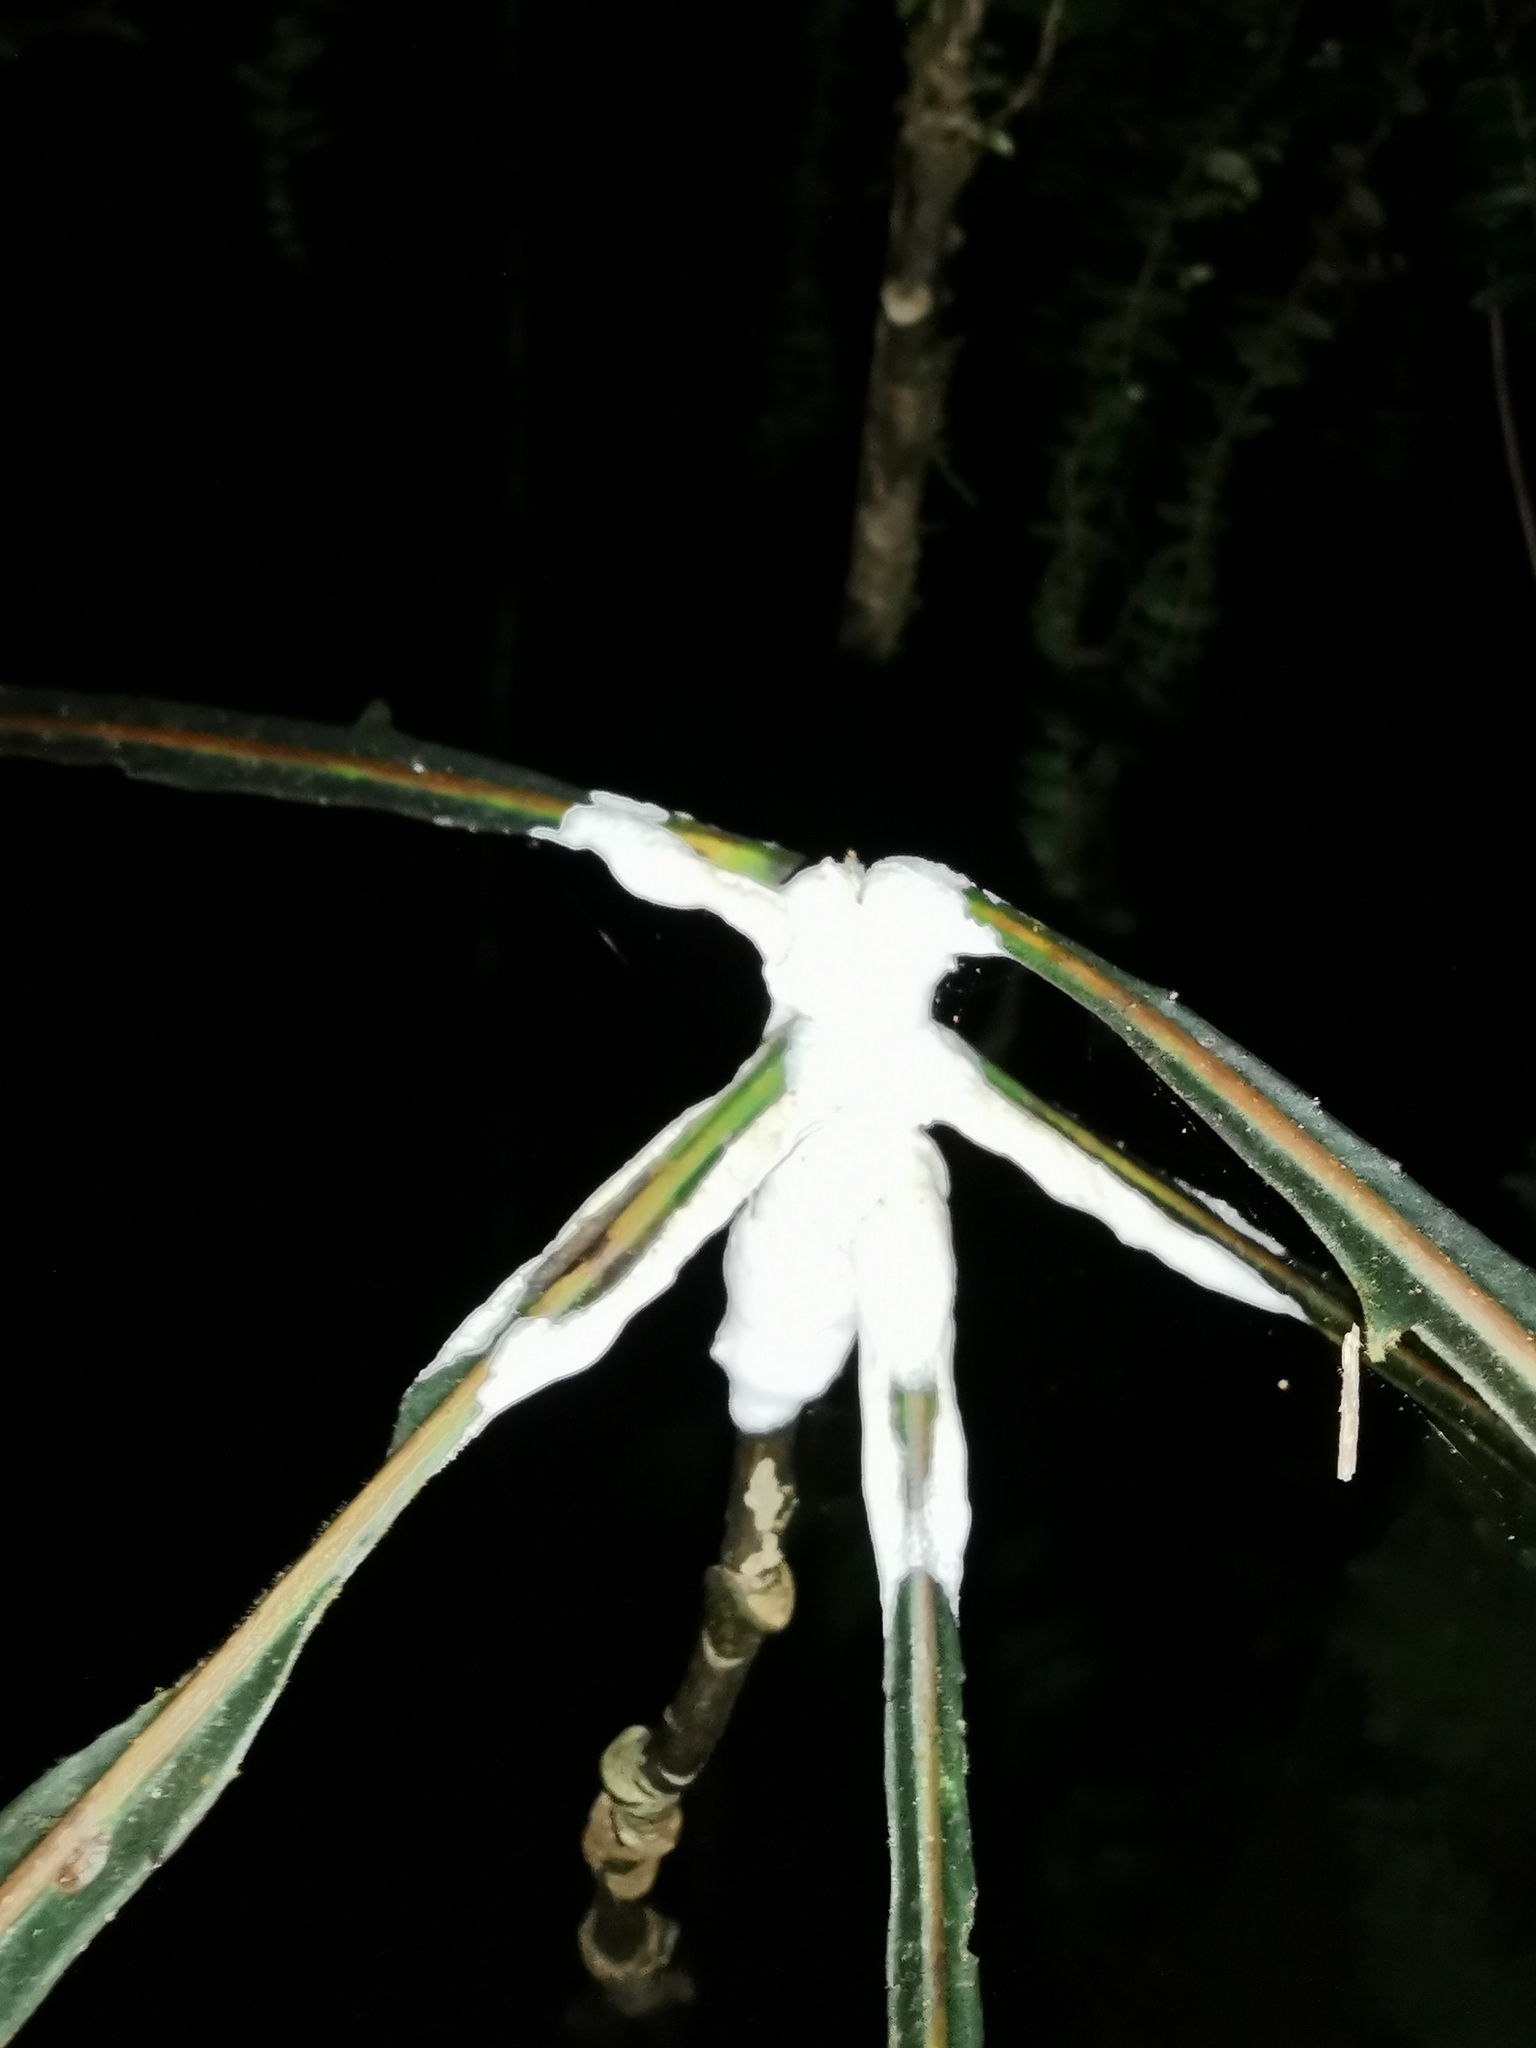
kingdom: Fungi
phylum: Basidiomycota
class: Pucciniomycetes
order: Septobasidiales
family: Septobasidiaceae
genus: Septobasidium
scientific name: Septobasidium simmondsii
